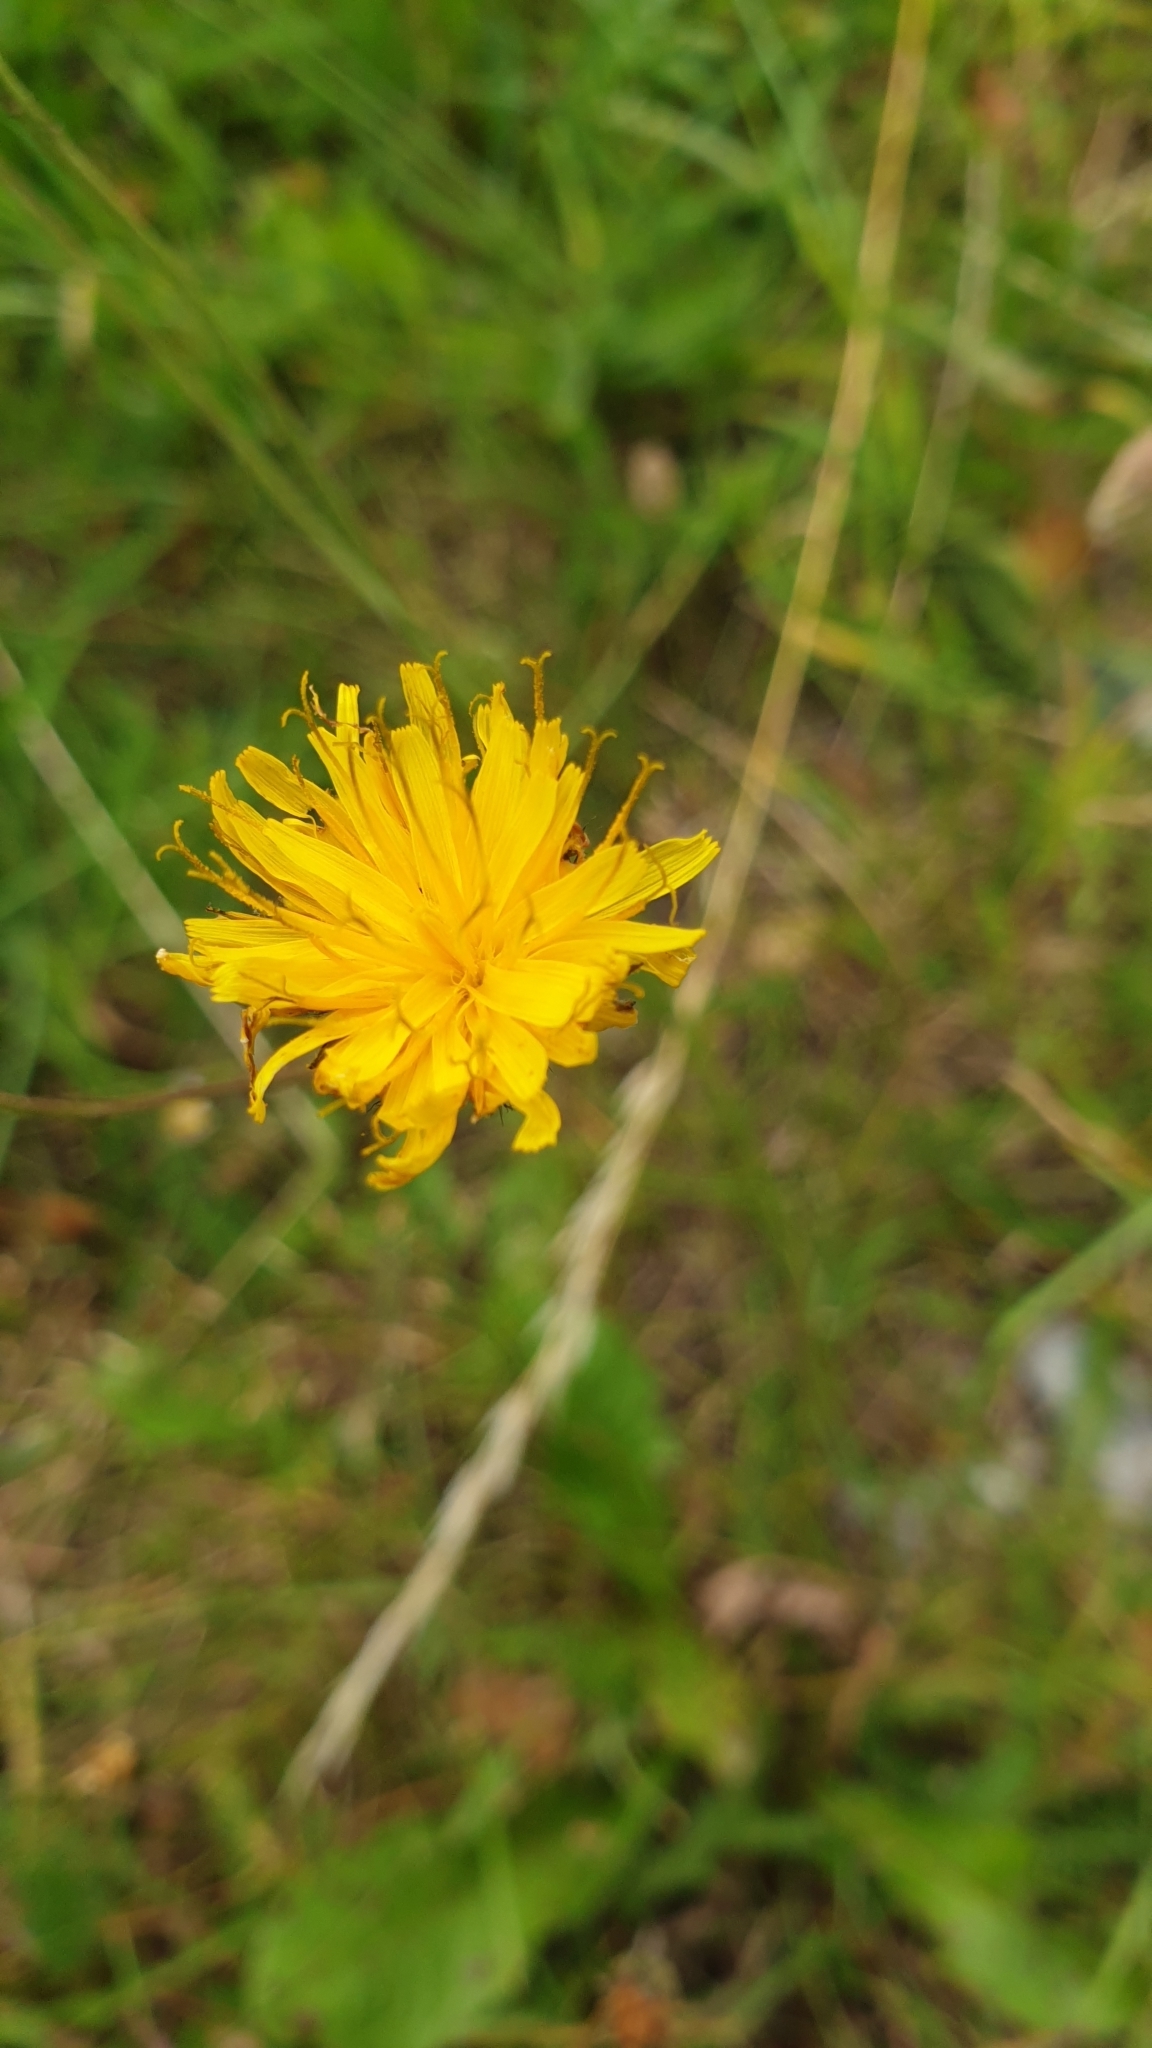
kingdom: Plantae
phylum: Tracheophyta
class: Magnoliopsida
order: Asterales
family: Asteraceae
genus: Scorzoneroides
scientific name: Scorzoneroides autumnalis
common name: Autumn hawkbit
